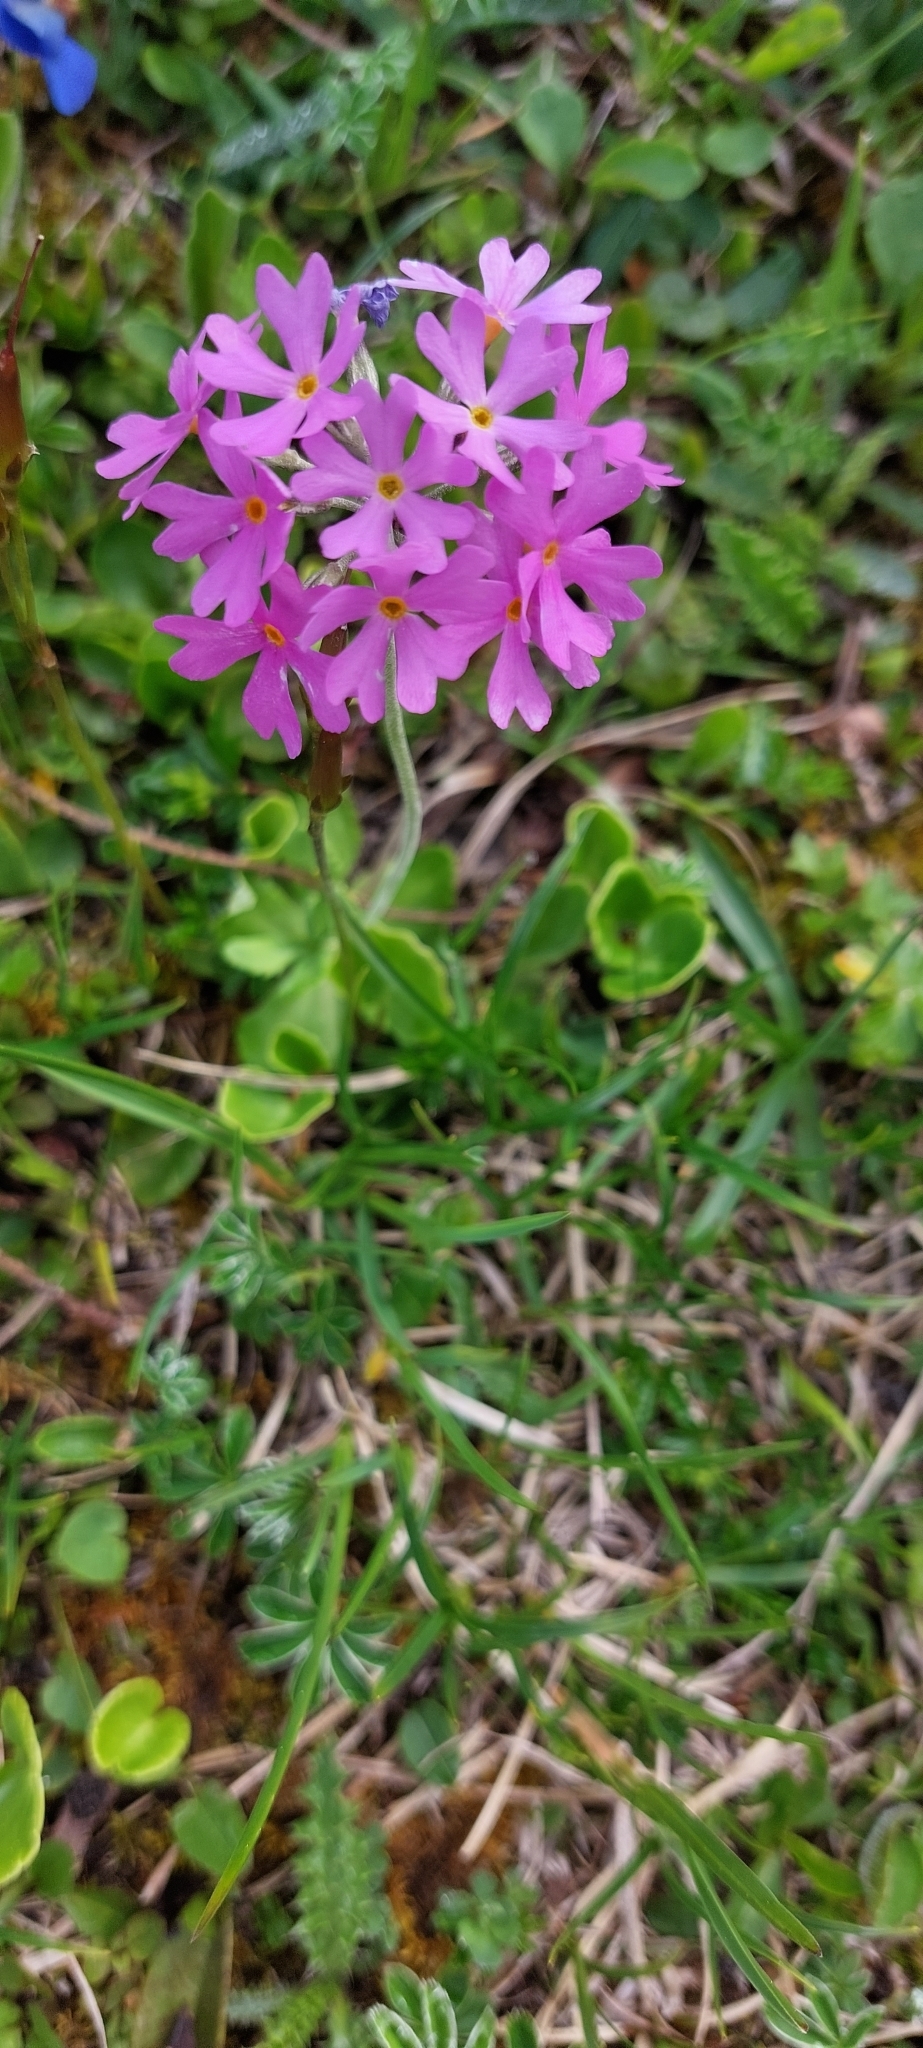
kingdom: Plantae
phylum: Tracheophyta
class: Magnoliopsida
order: Ericales
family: Primulaceae
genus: Primula
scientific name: Primula farinosa
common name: Bird's-eye primrose
